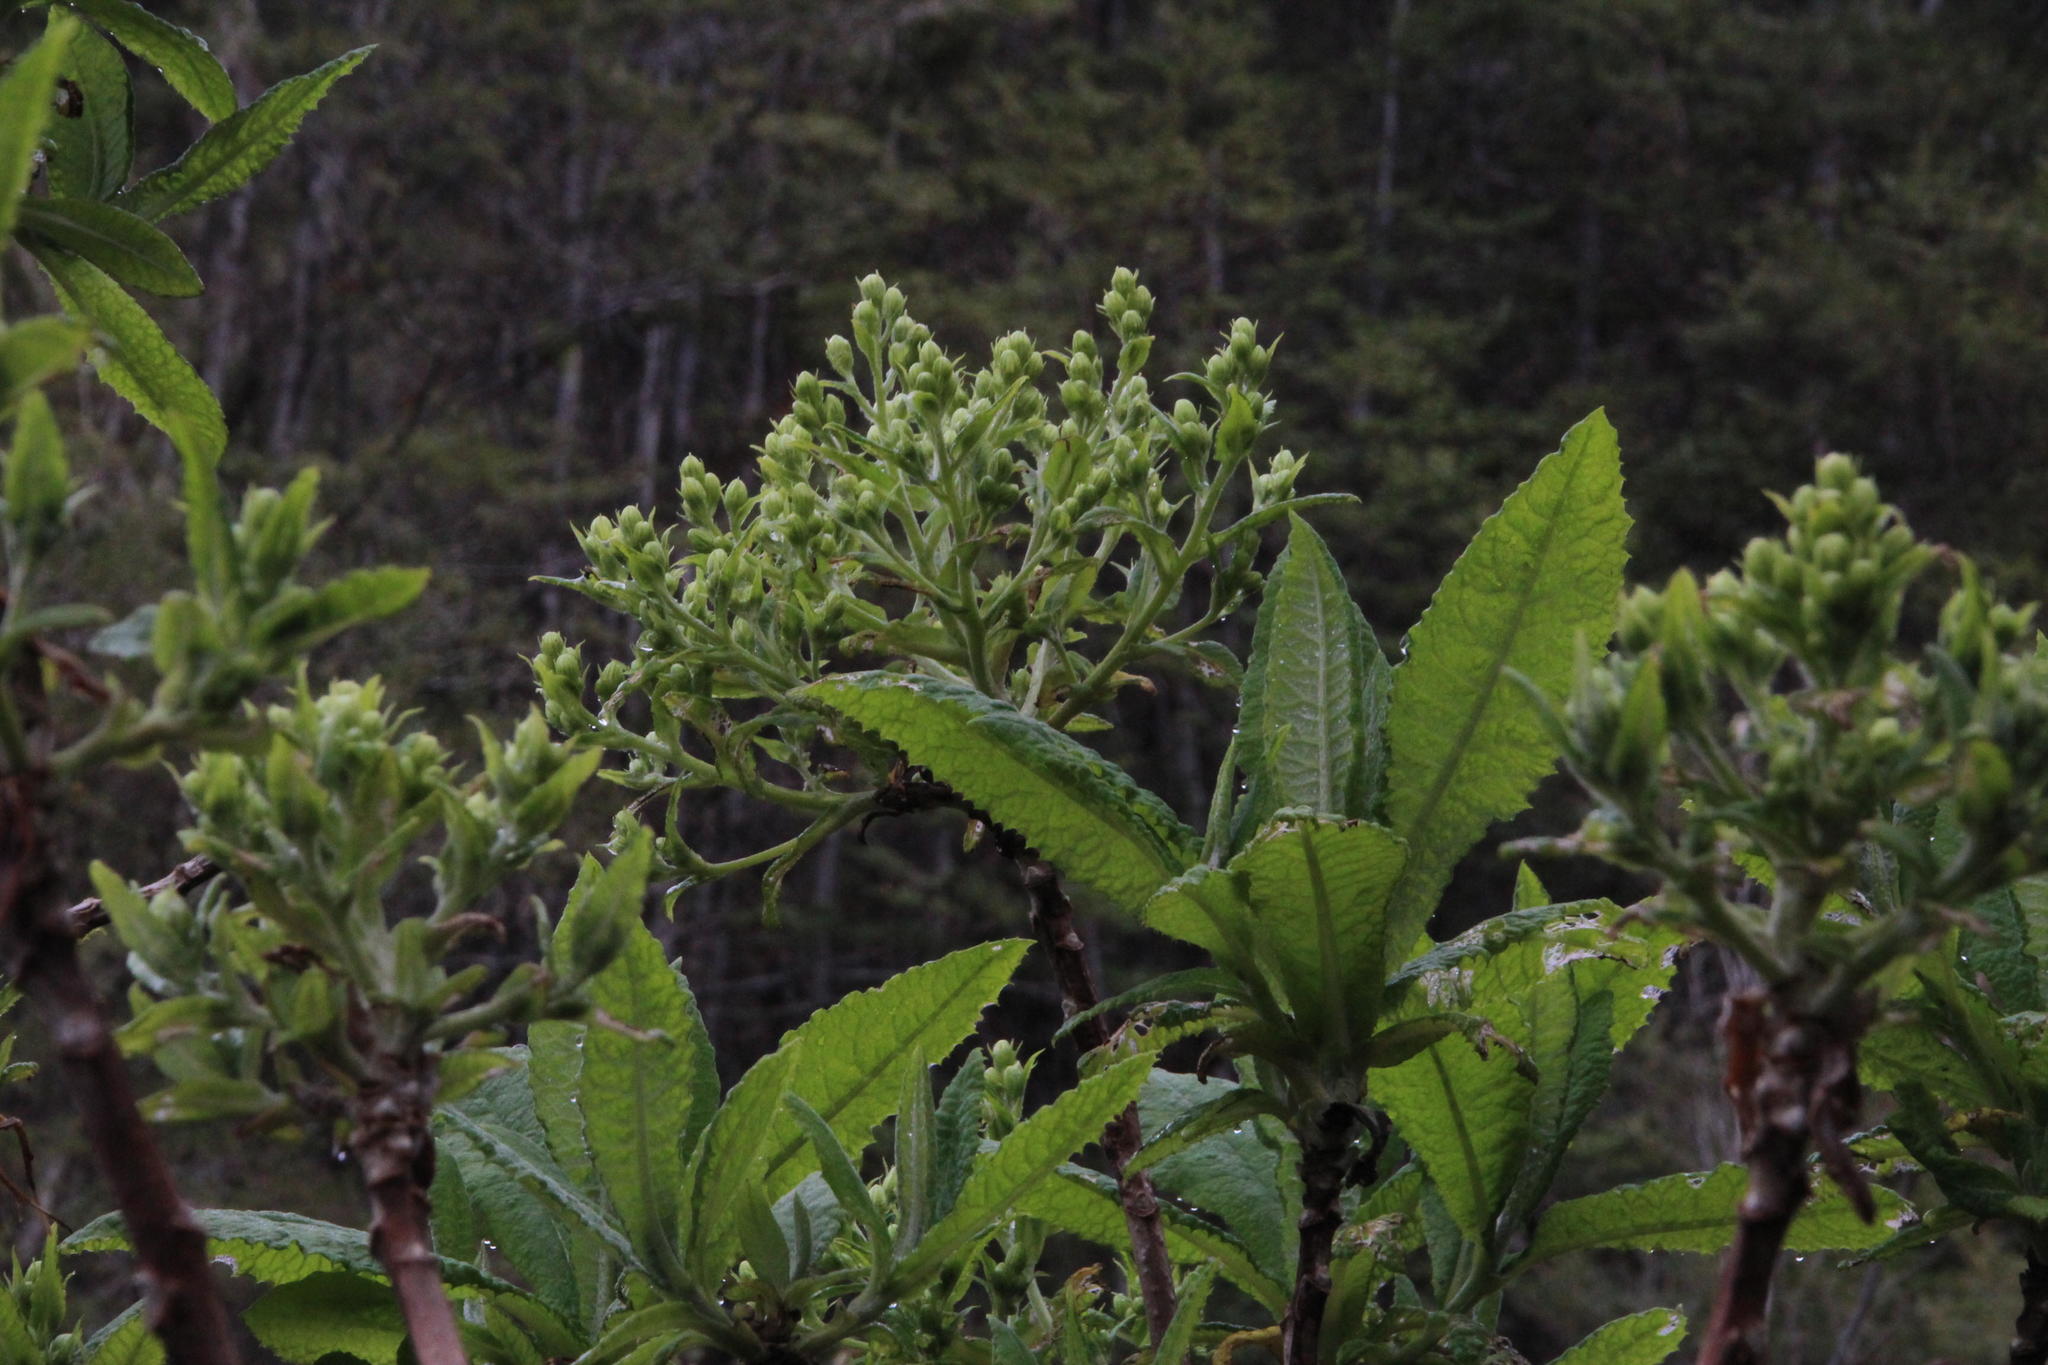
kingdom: Plantae
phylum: Tracheophyta
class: Magnoliopsida
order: Asterales
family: Asteraceae
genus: Acrisione
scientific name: Acrisione cymosa
